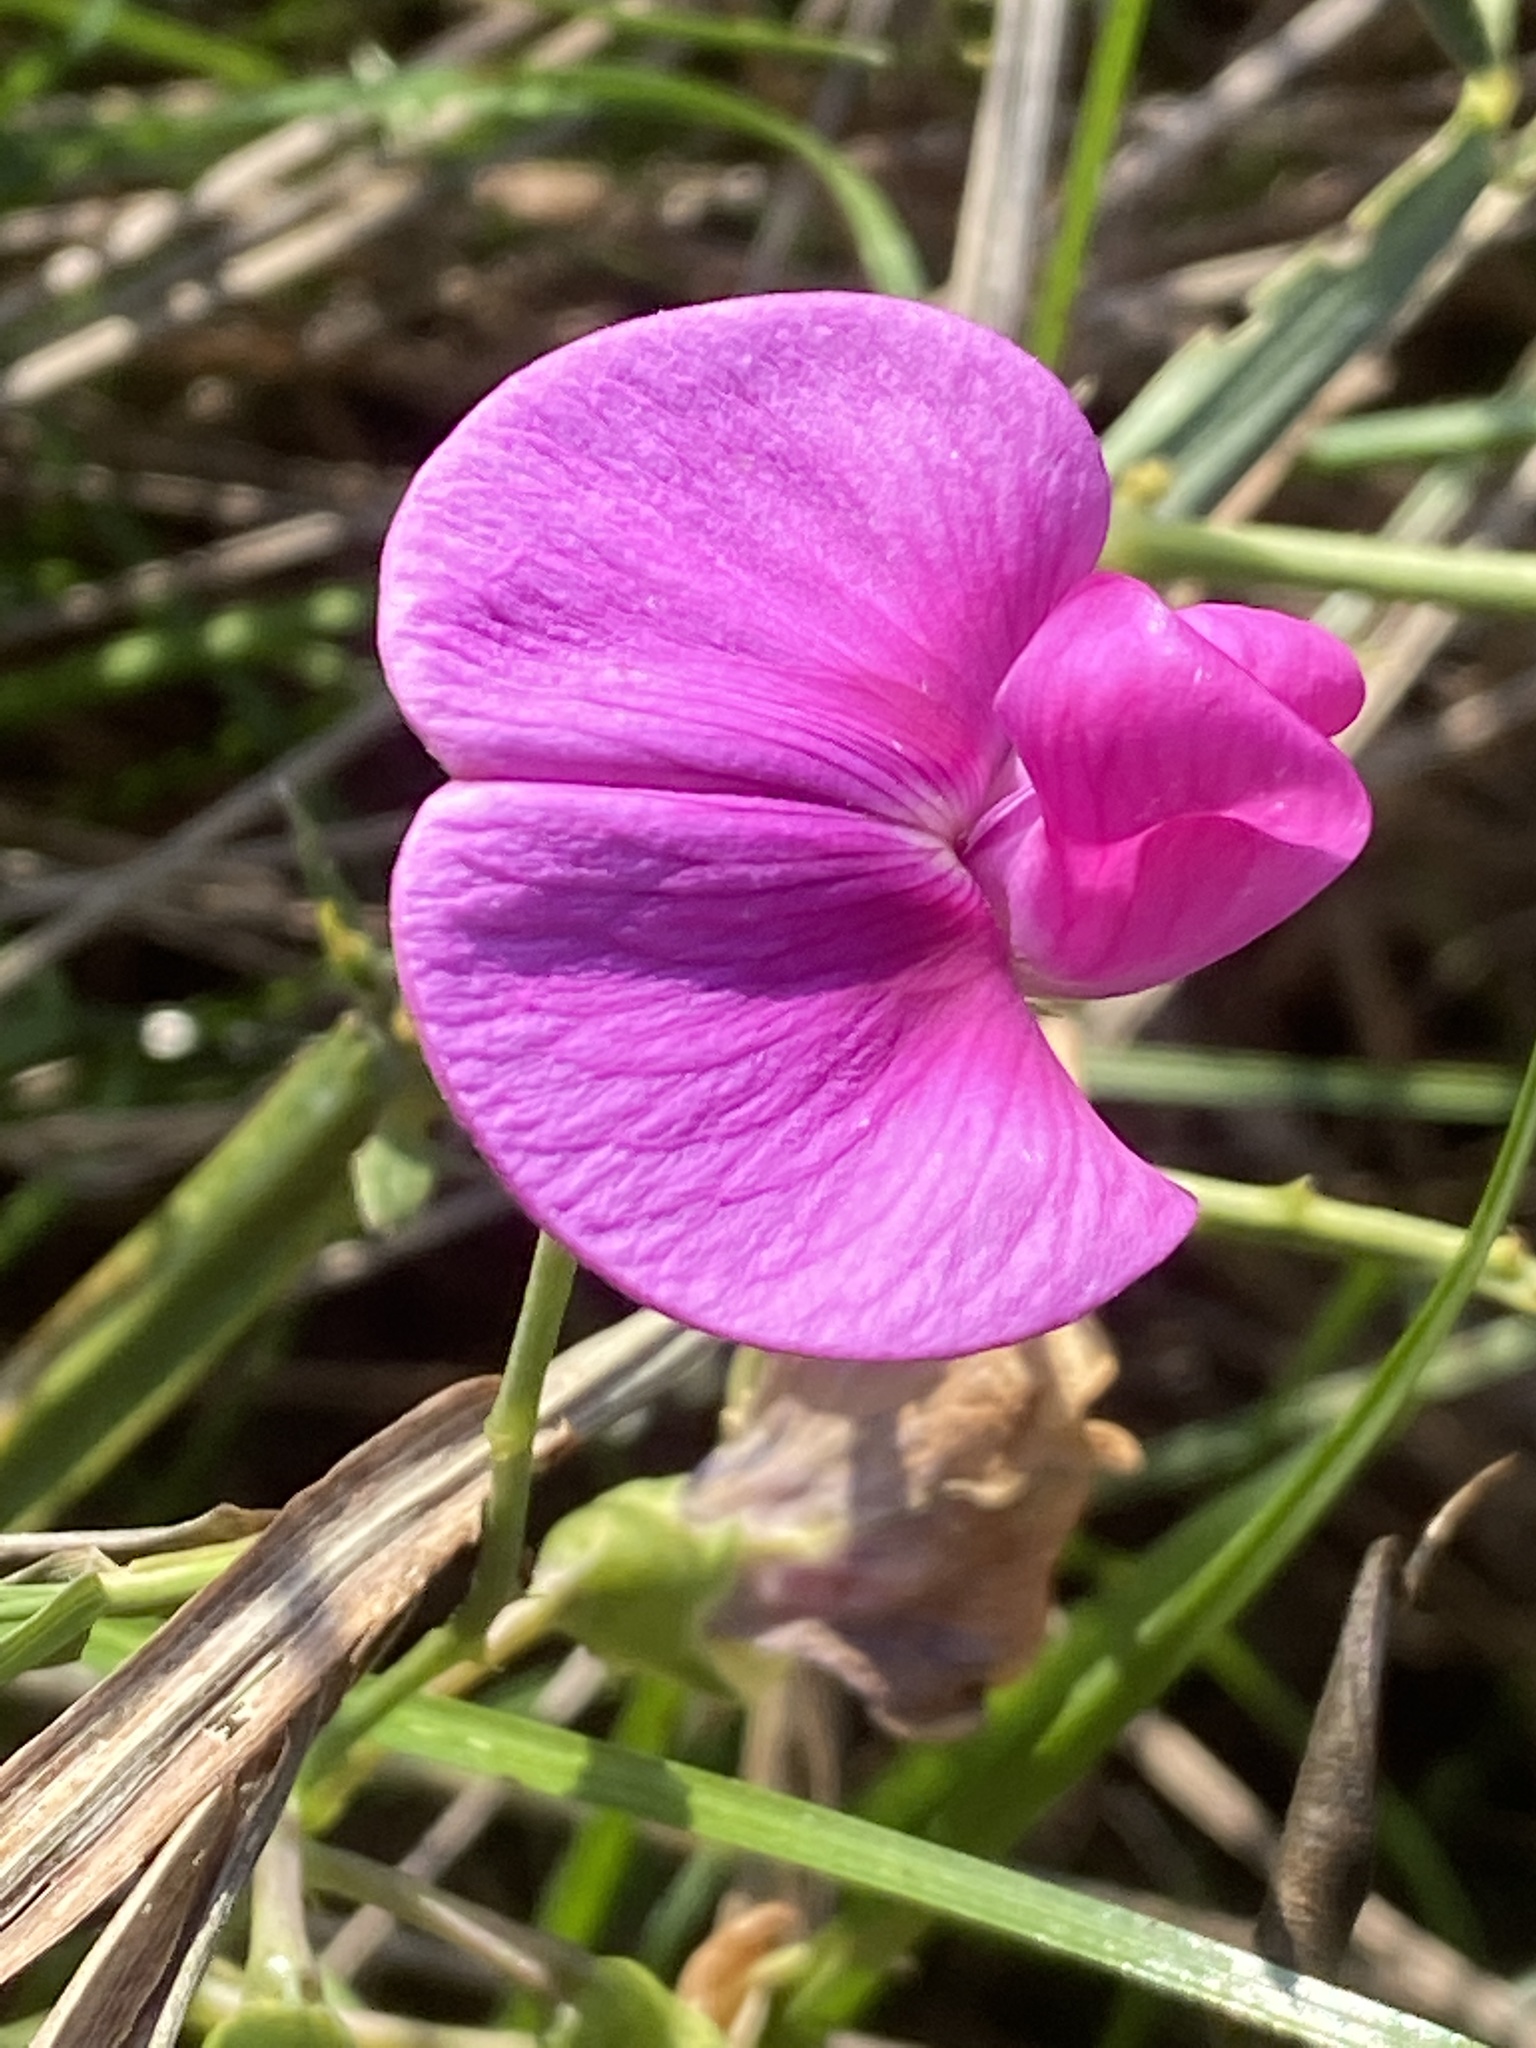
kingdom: Plantae
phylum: Tracheophyta
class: Magnoliopsida
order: Fabales
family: Fabaceae
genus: Lathyrus
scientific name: Lathyrus latifolius
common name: Perennial pea
